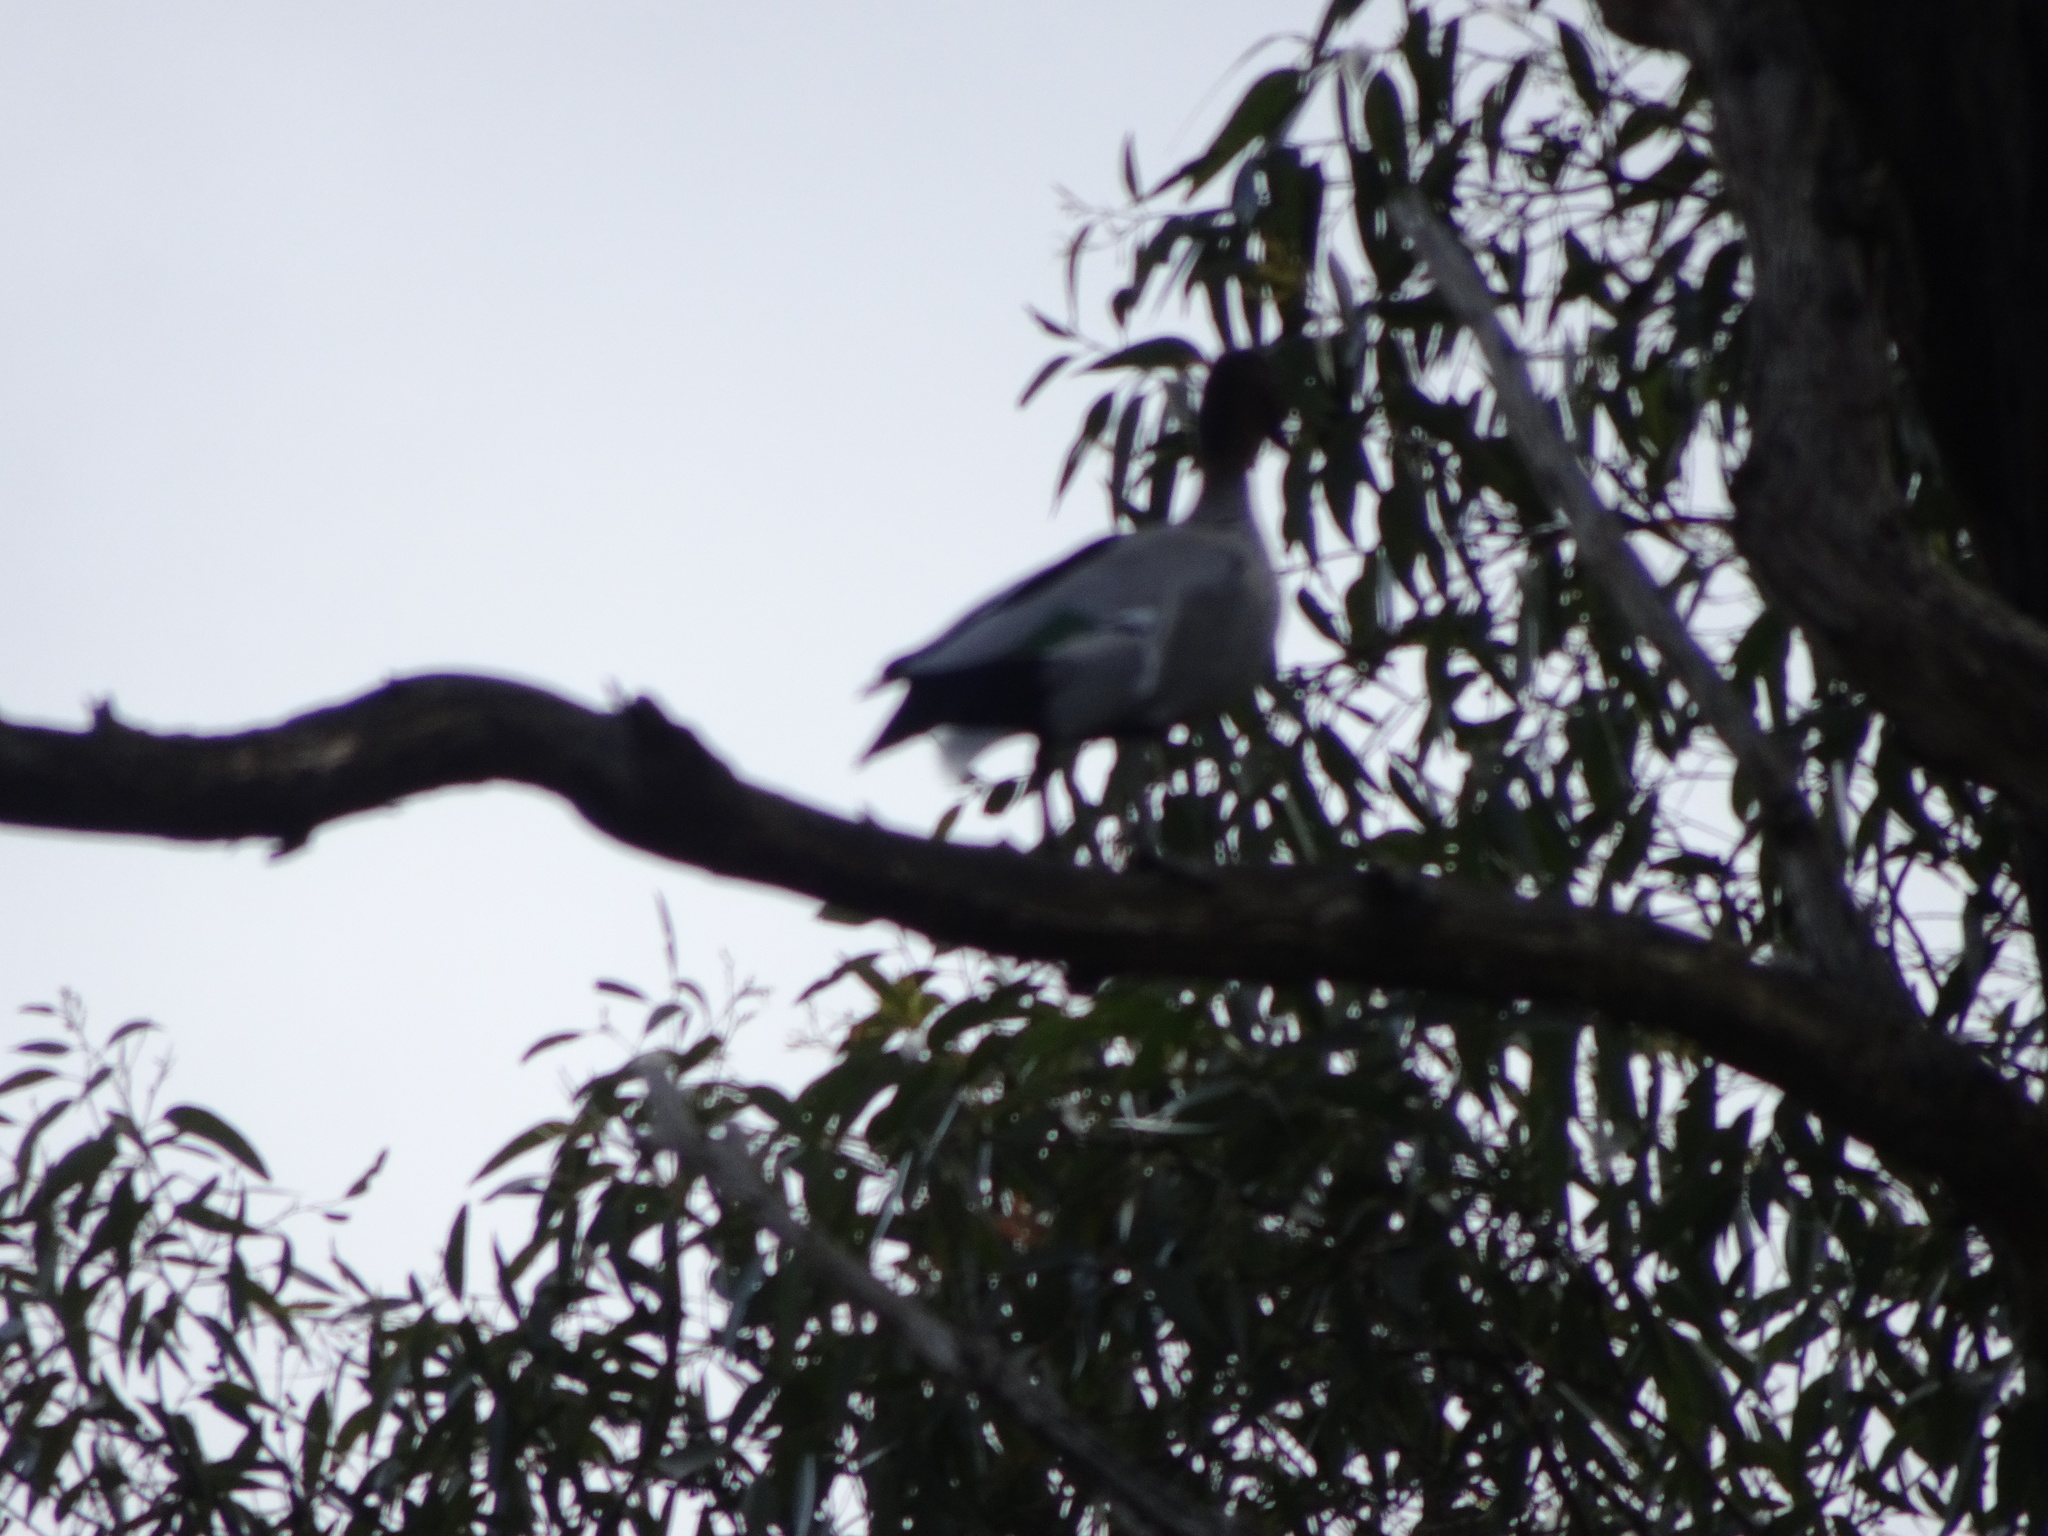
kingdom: Animalia
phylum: Chordata
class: Aves
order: Anseriformes
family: Anatidae
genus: Chenonetta
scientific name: Chenonetta jubata
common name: Maned duck
